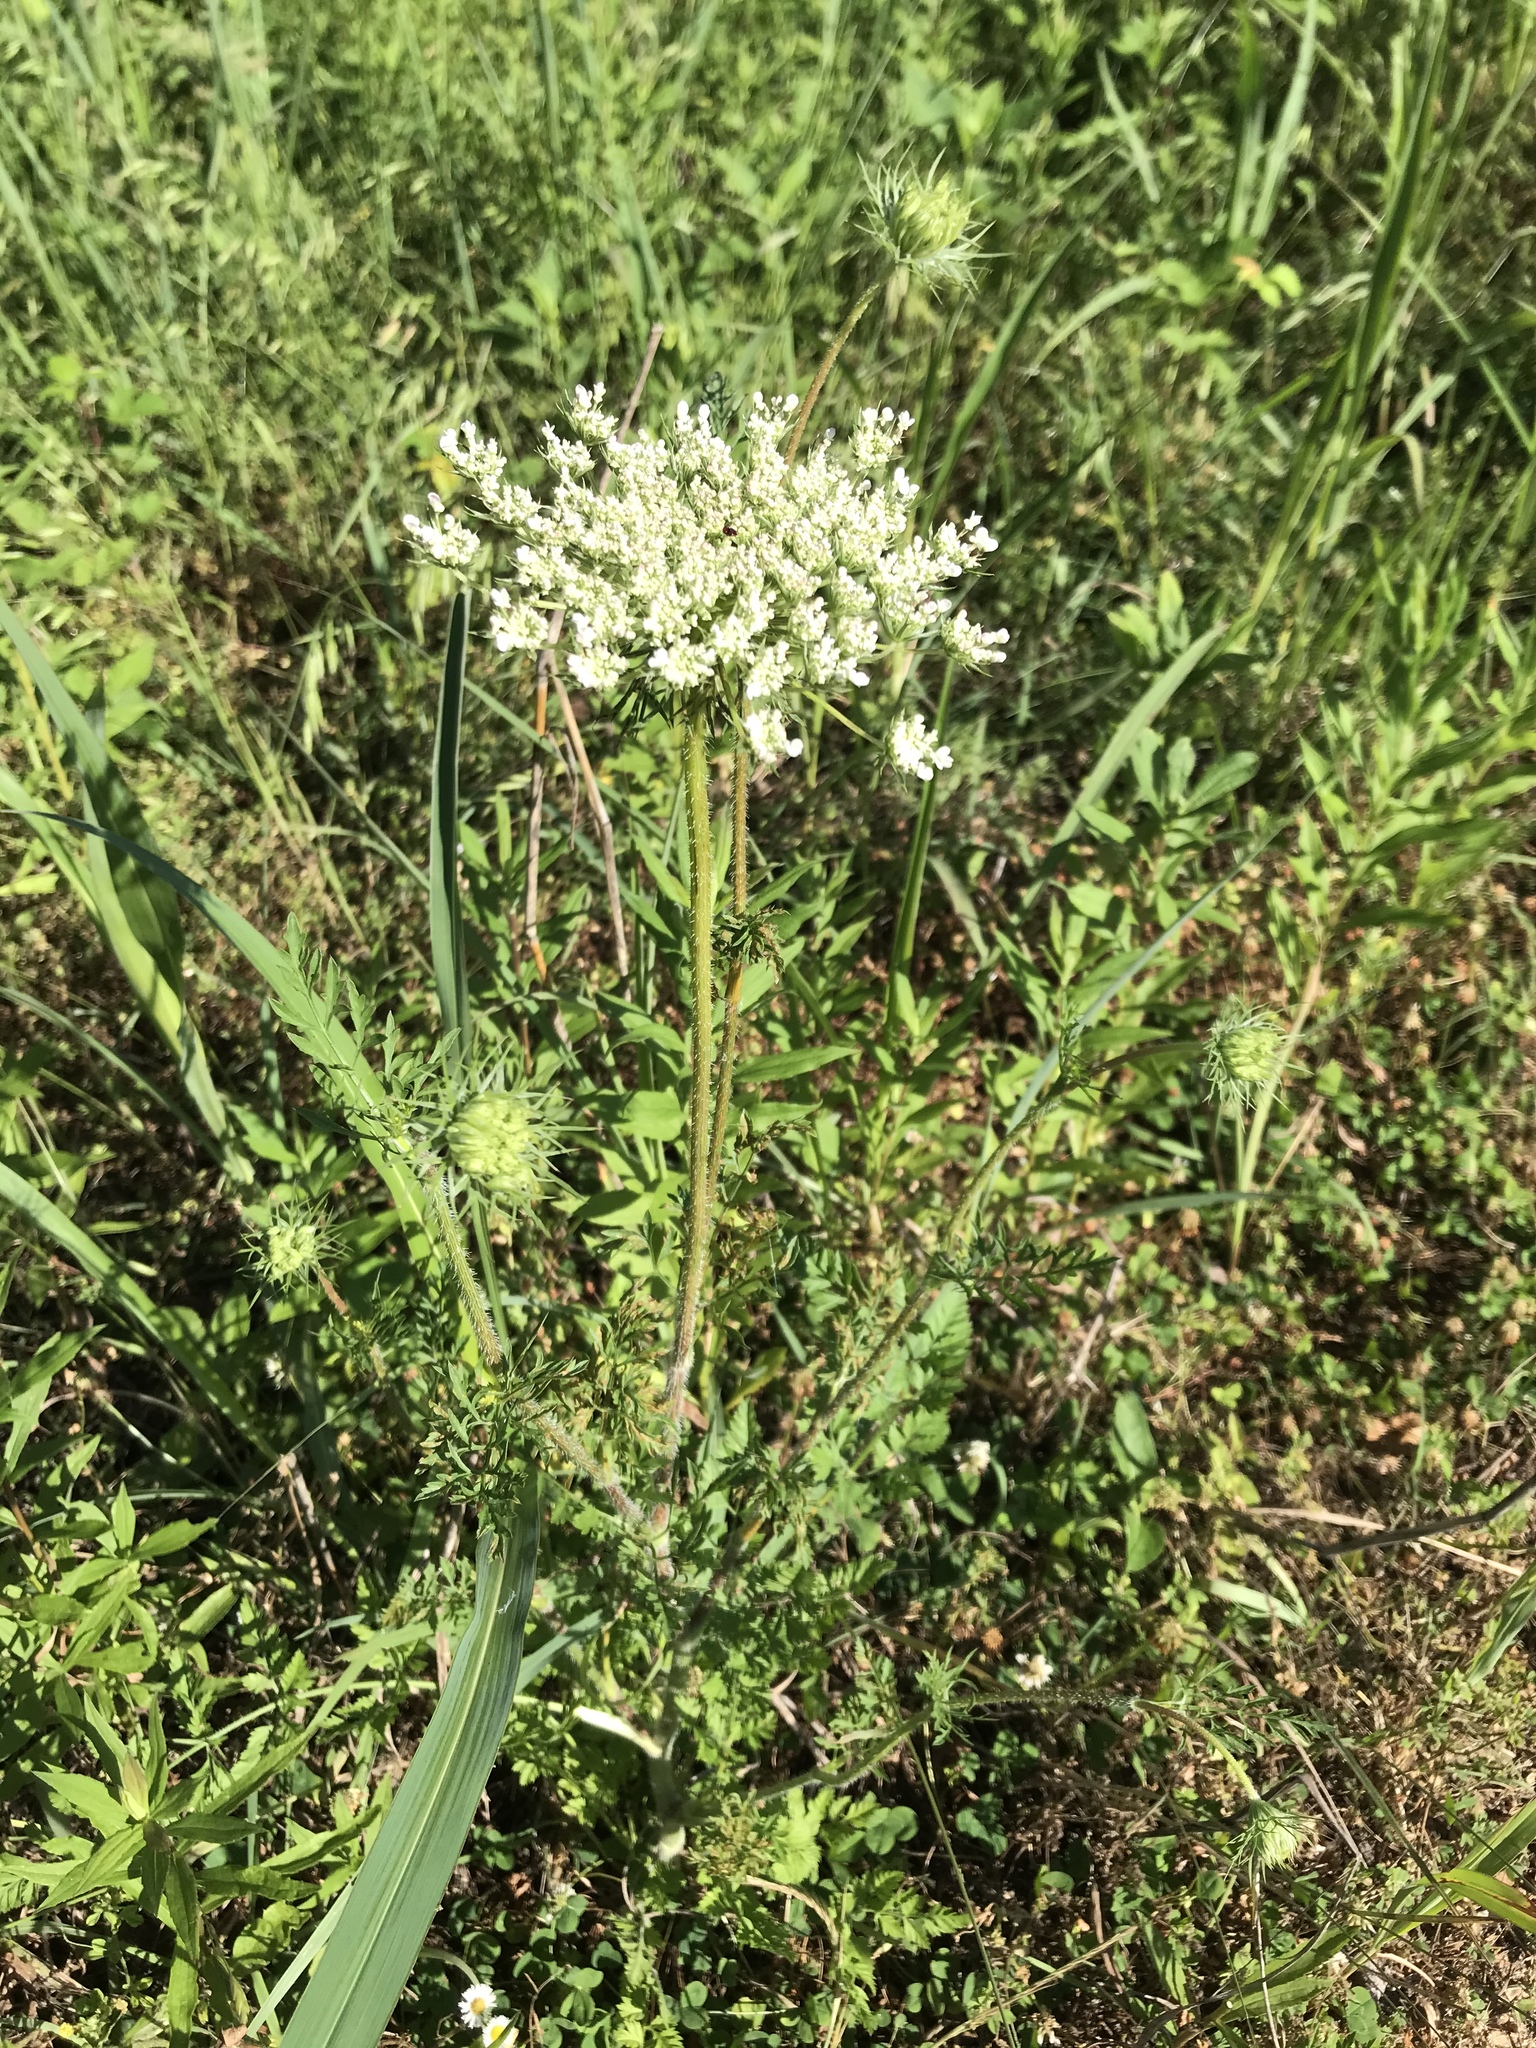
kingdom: Plantae
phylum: Tracheophyta
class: Magnoliopsida
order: Apiales
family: Apiaceae
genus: Daucus
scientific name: Daucus carota
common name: Wild carrot
